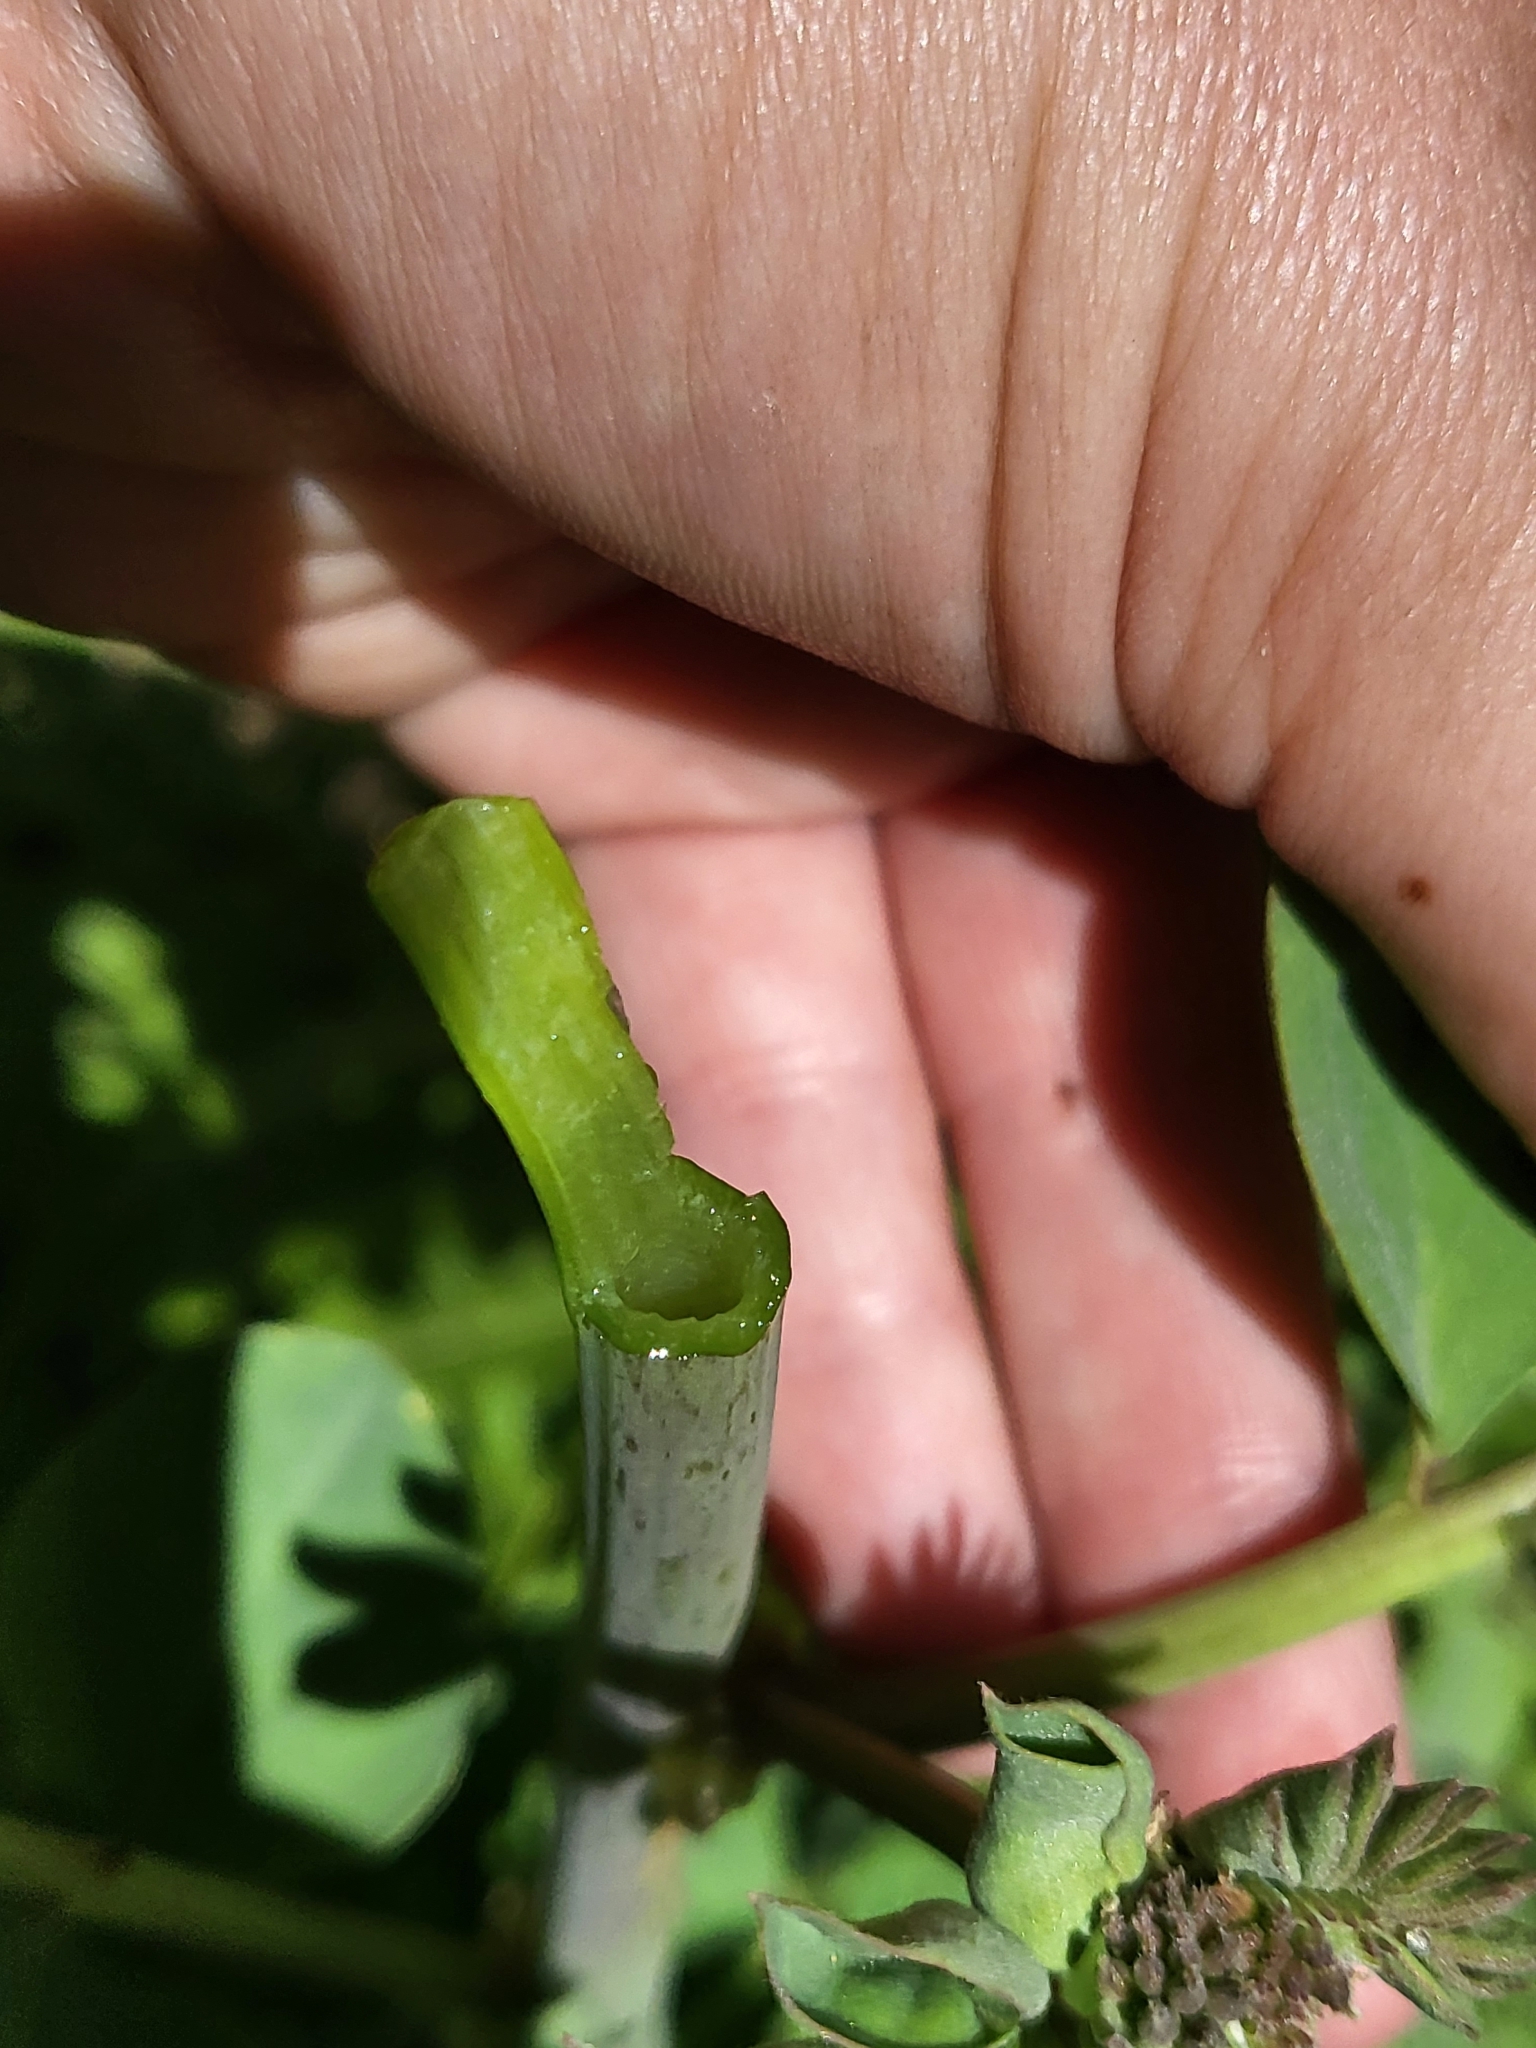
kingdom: Plantae
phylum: Tracheophyta
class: Magnoliopsida
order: Fabales
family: Fabaceae
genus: Hosackia
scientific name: Hosackia crassifolia
